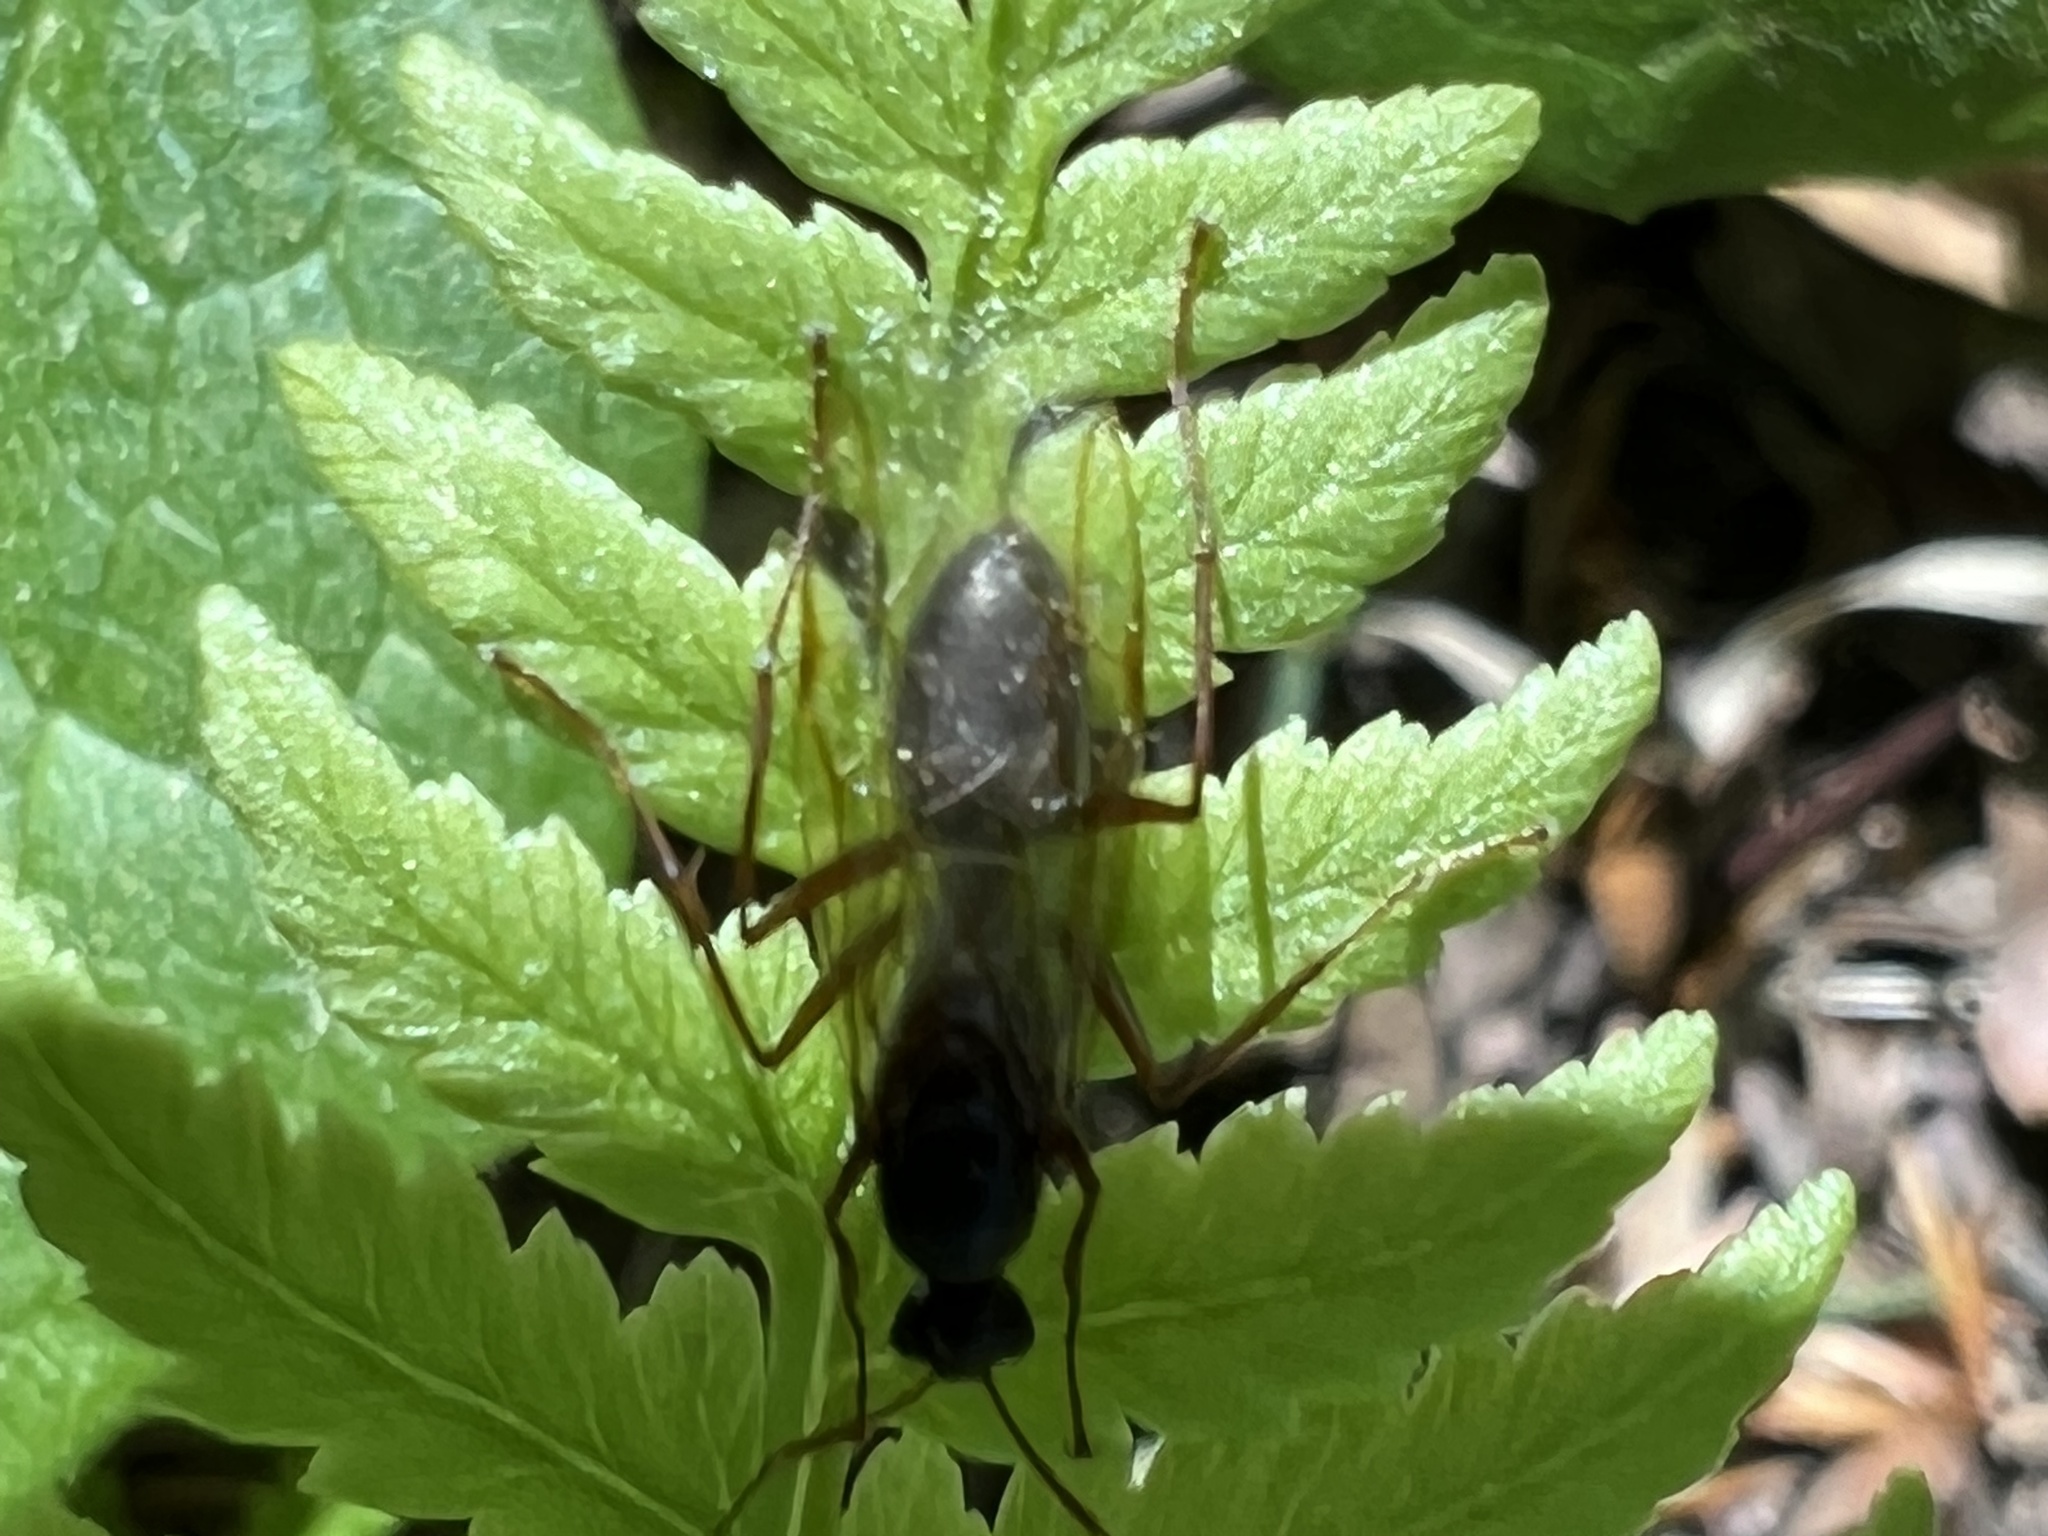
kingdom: Animalia
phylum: Arthropoda
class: Insecta
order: Hymenoptera
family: Formicidae
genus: Camponotus
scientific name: Camponotus pennsylvanicus
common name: Black carpenter ant
